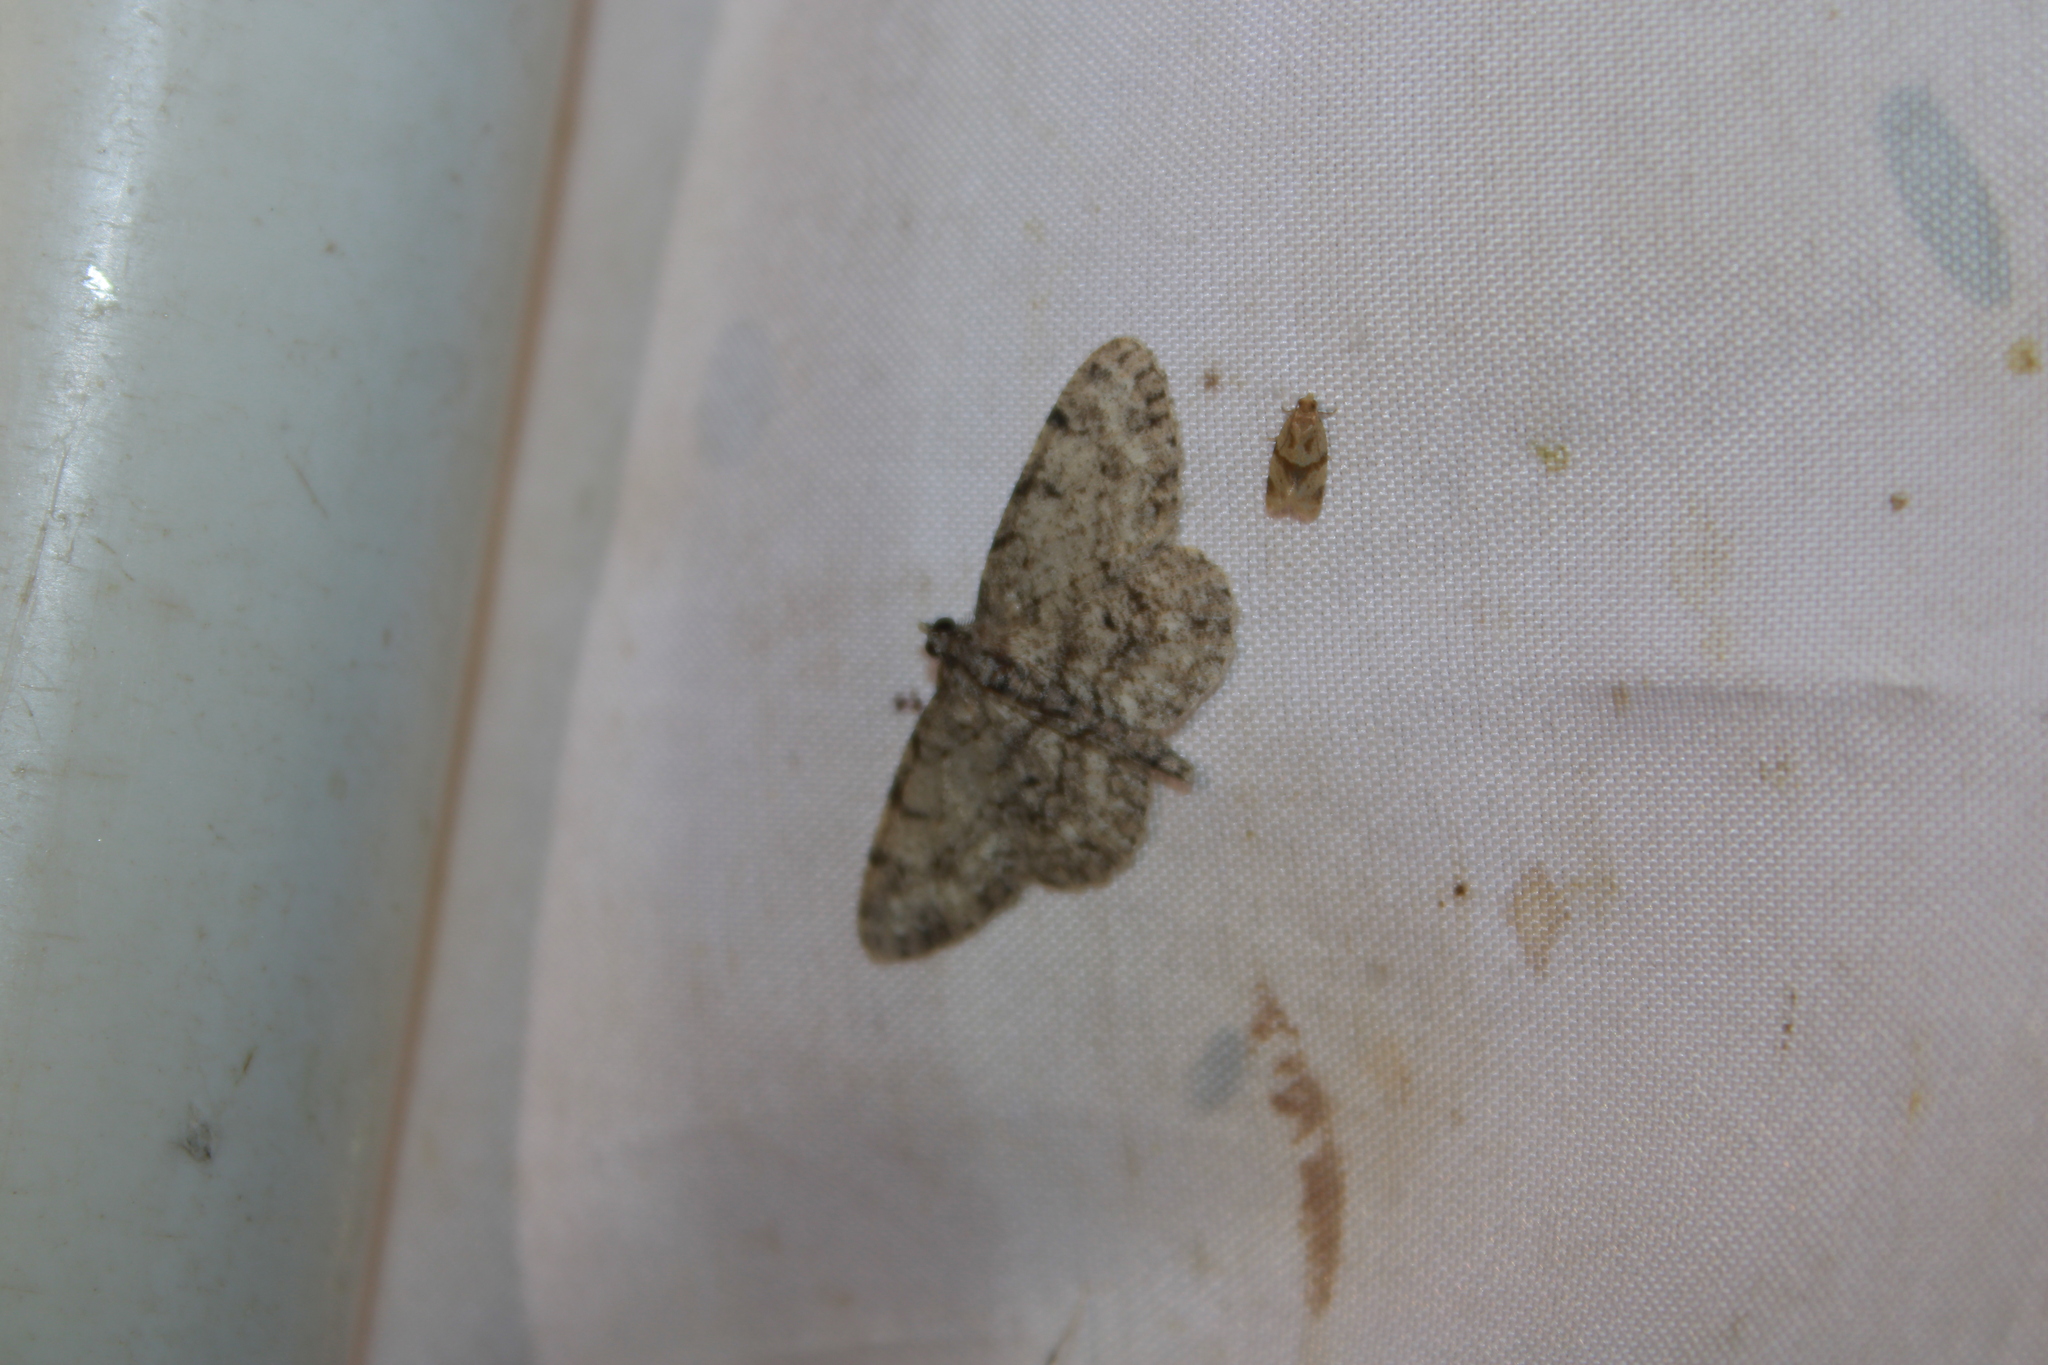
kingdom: Animalia
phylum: Arthropoda
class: Insecta
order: Lepidoptera
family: Geometridae
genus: Protoboarmia
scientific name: Protoboarmia porcelaria
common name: Porcelain gray
